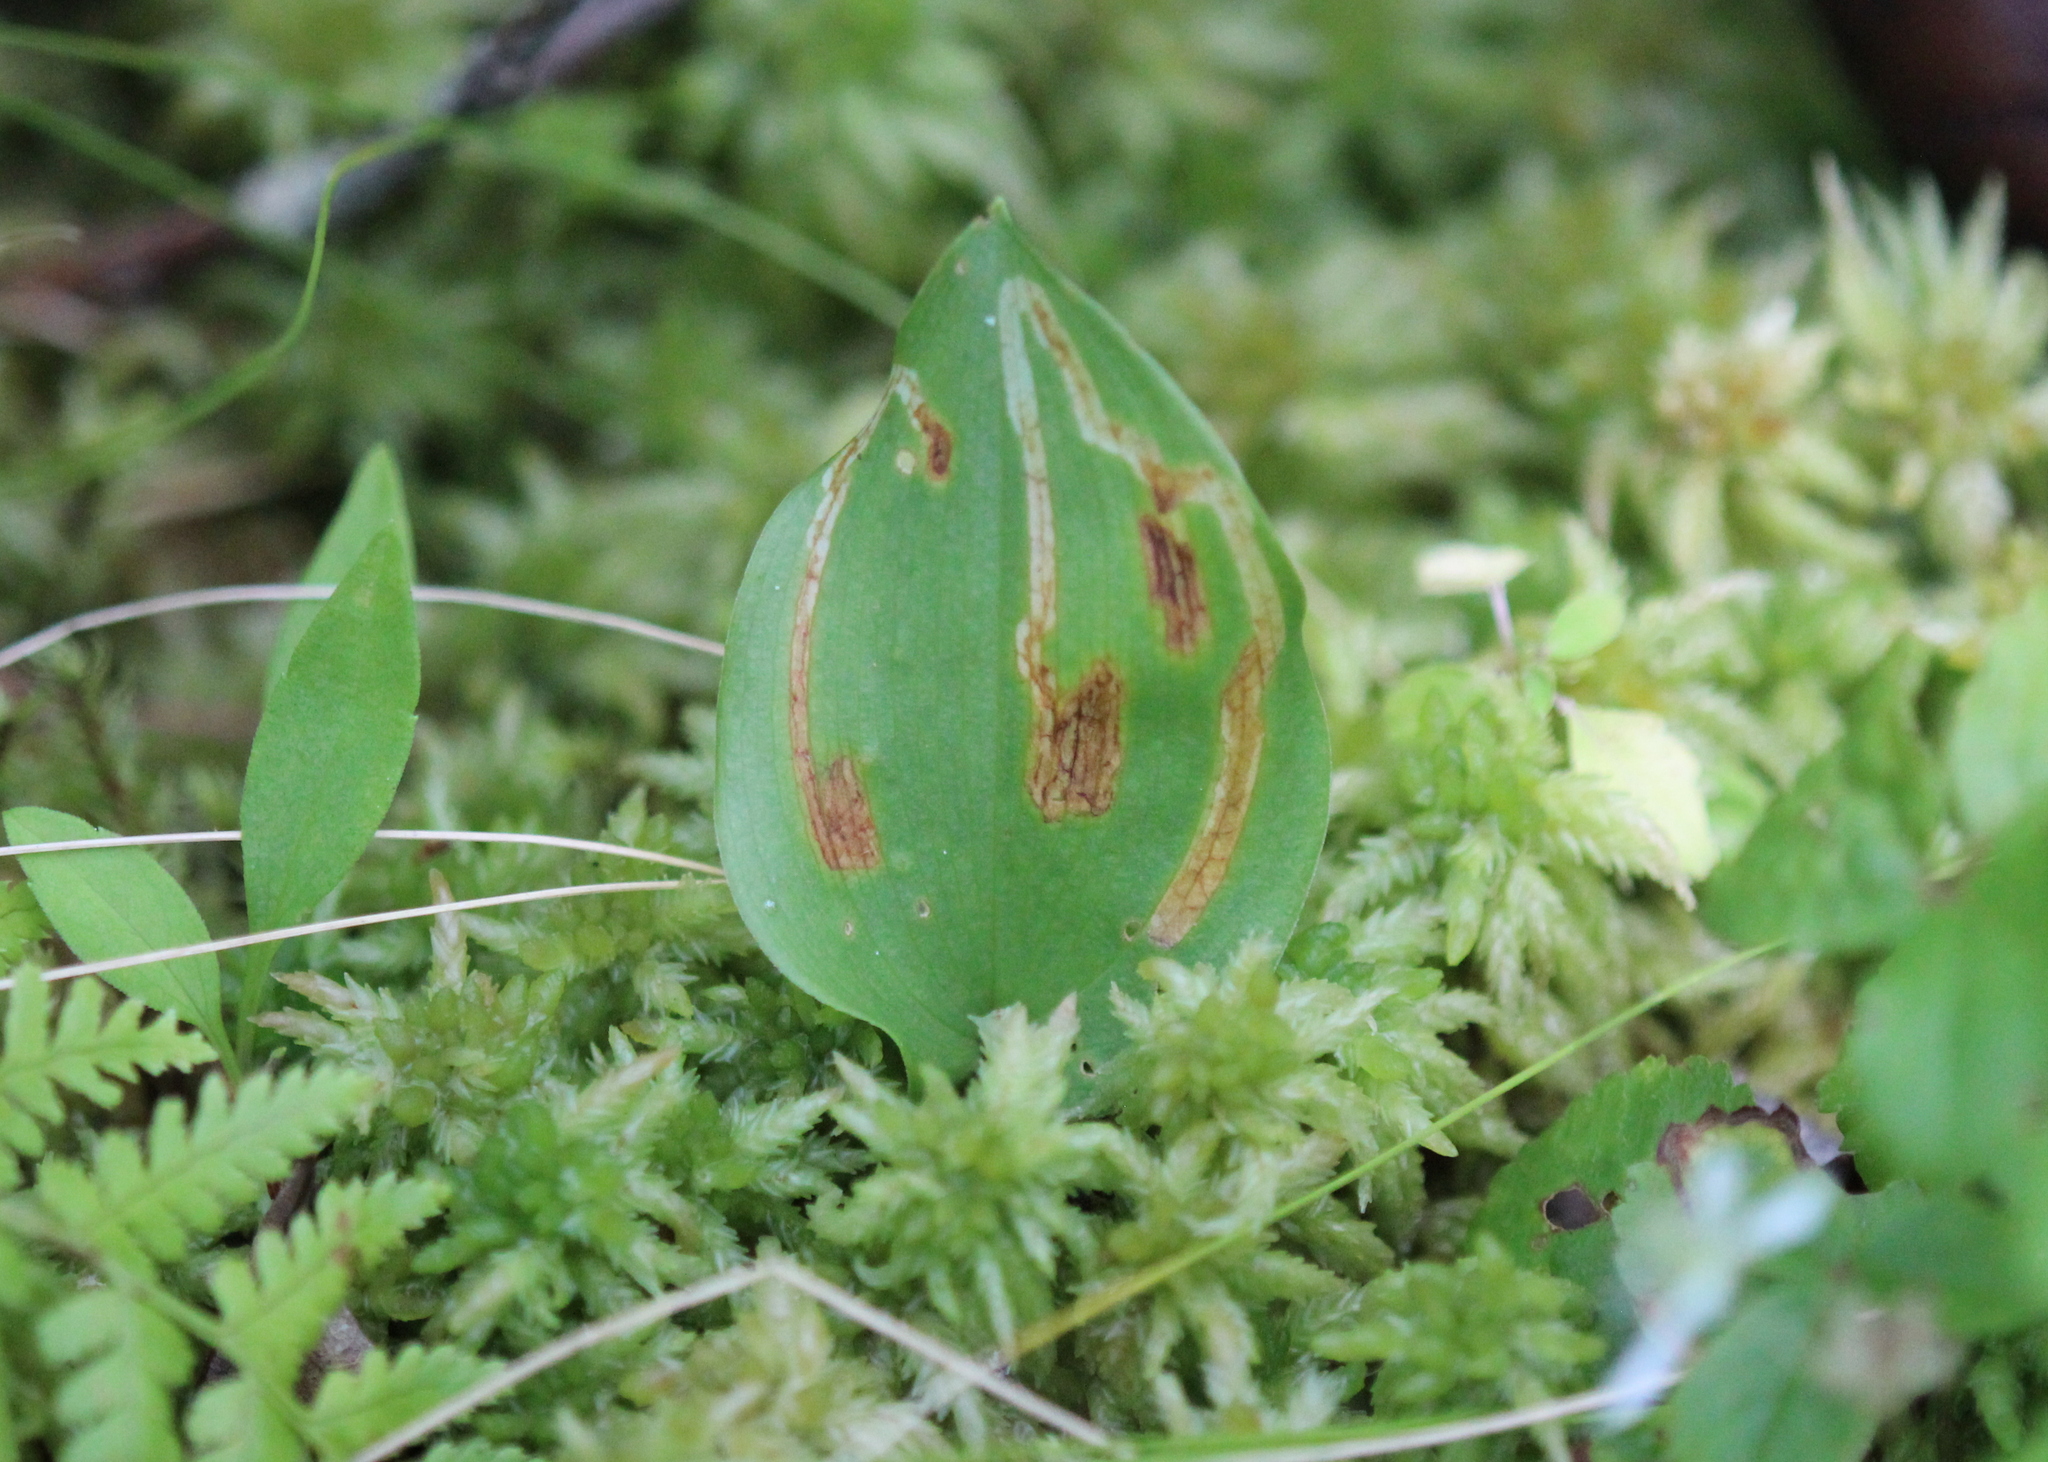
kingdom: Plantae
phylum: Tracheophyta
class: Liliopsida
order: Asparagales
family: Asparagaceae
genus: Maianthemum
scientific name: Maianthemum canadense
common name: False lily-of-the-valley
